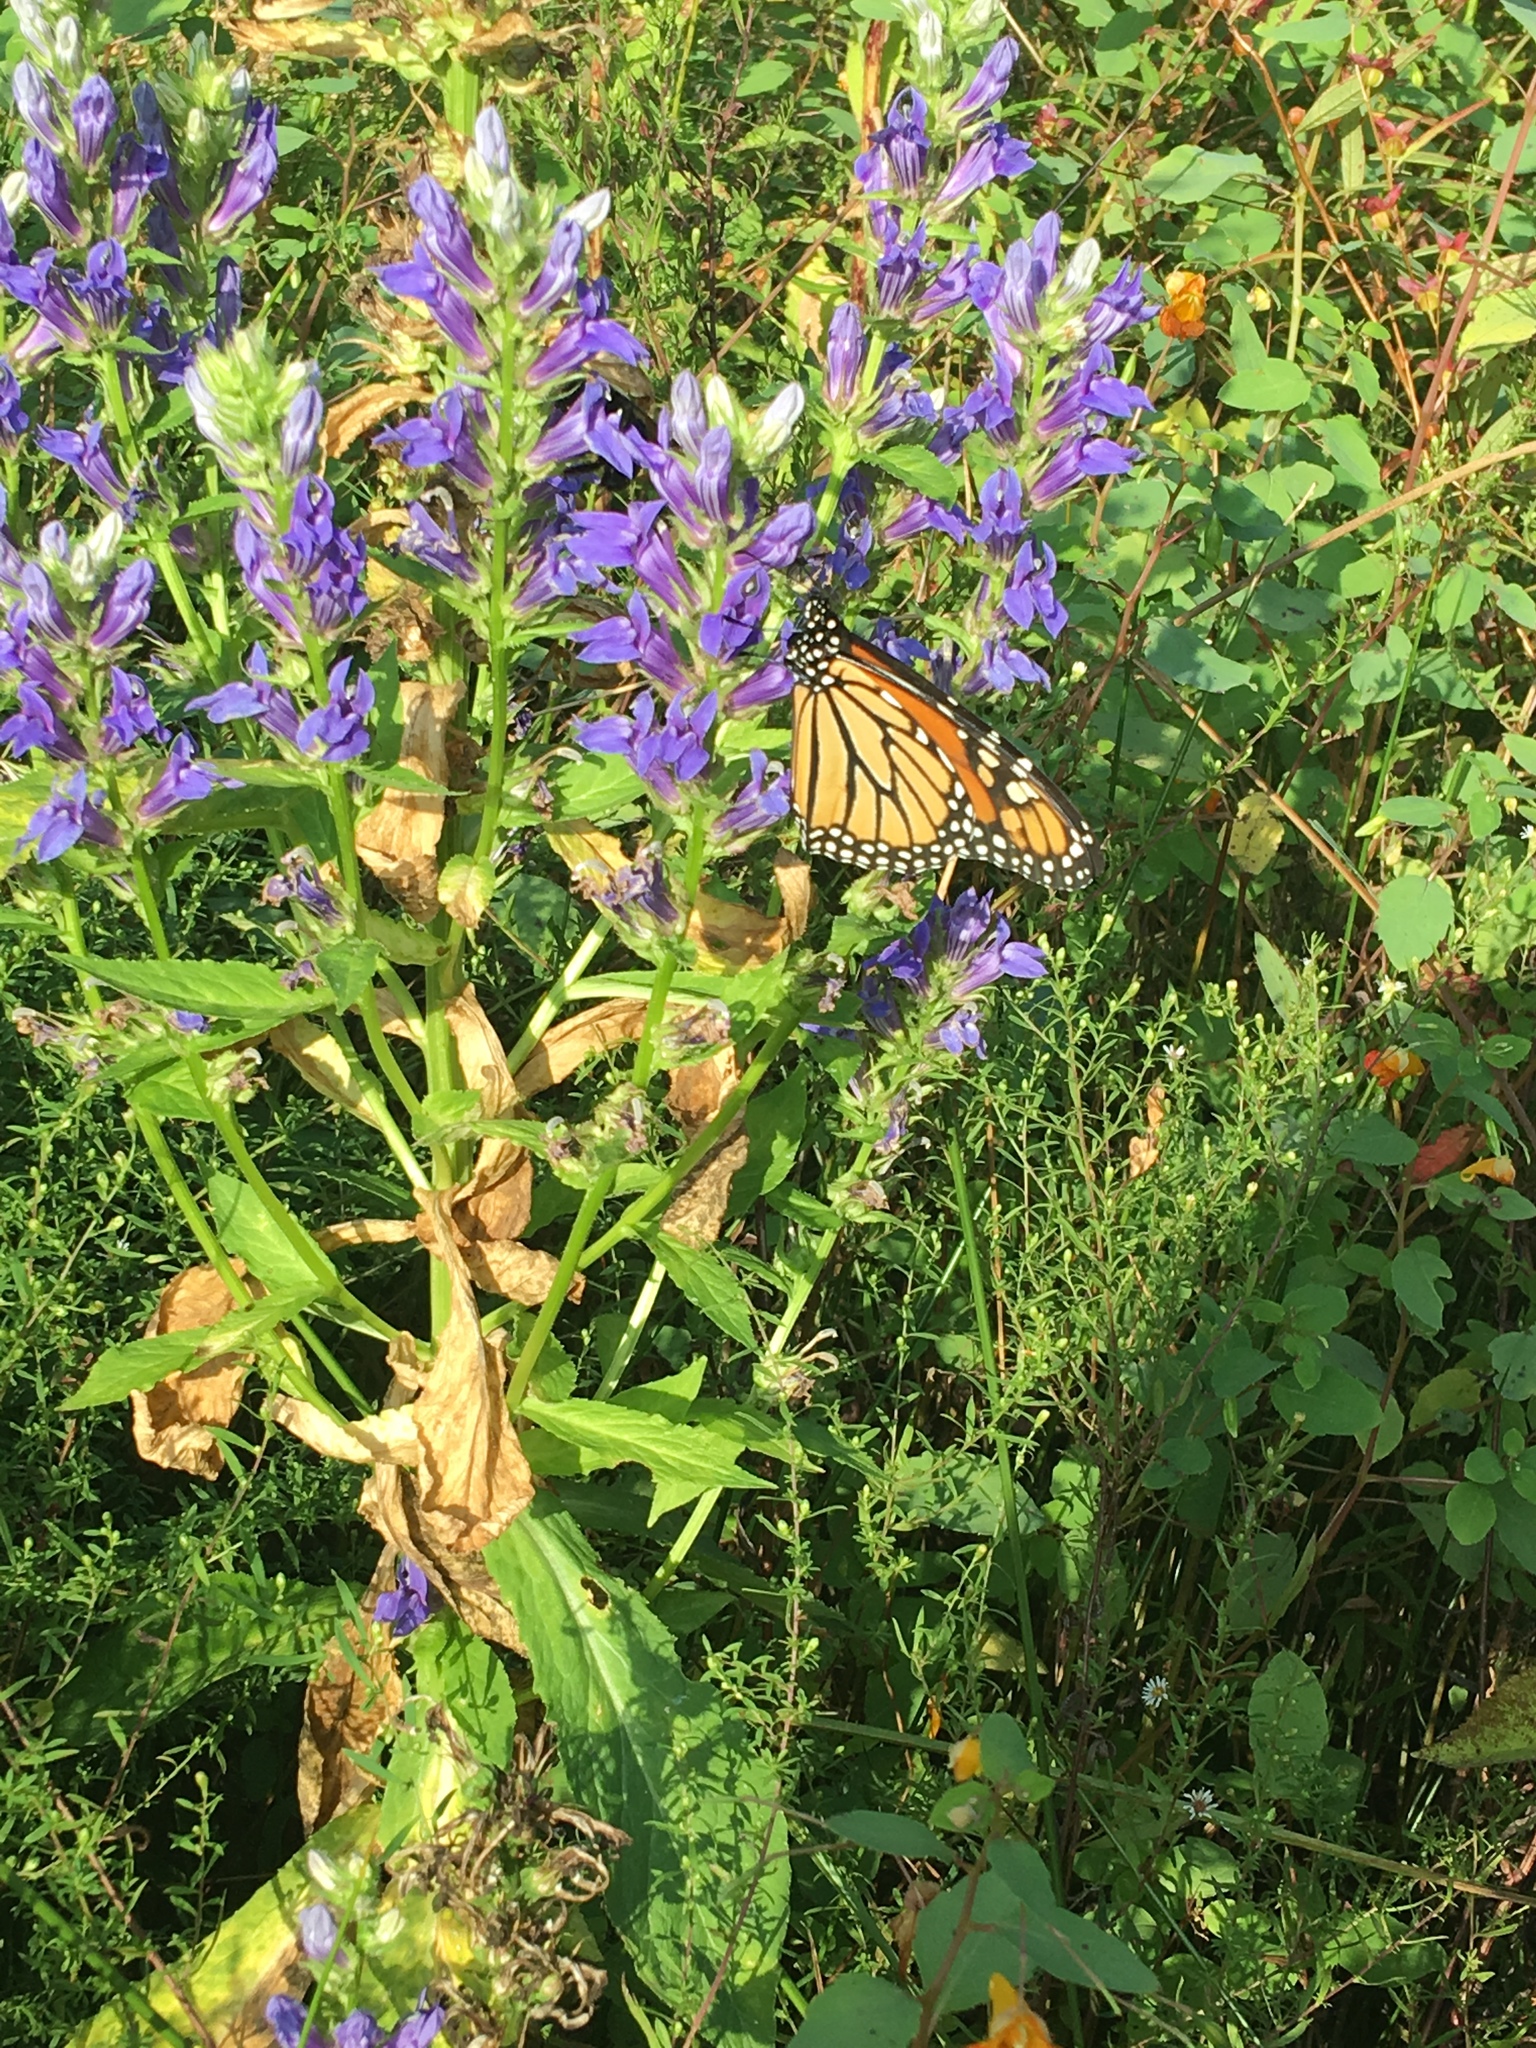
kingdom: Animalia
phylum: Arthropoda
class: Insecta
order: Lepidoptera
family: Nymphalidae
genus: Danaus
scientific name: Danaus plexippus
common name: Monarch
